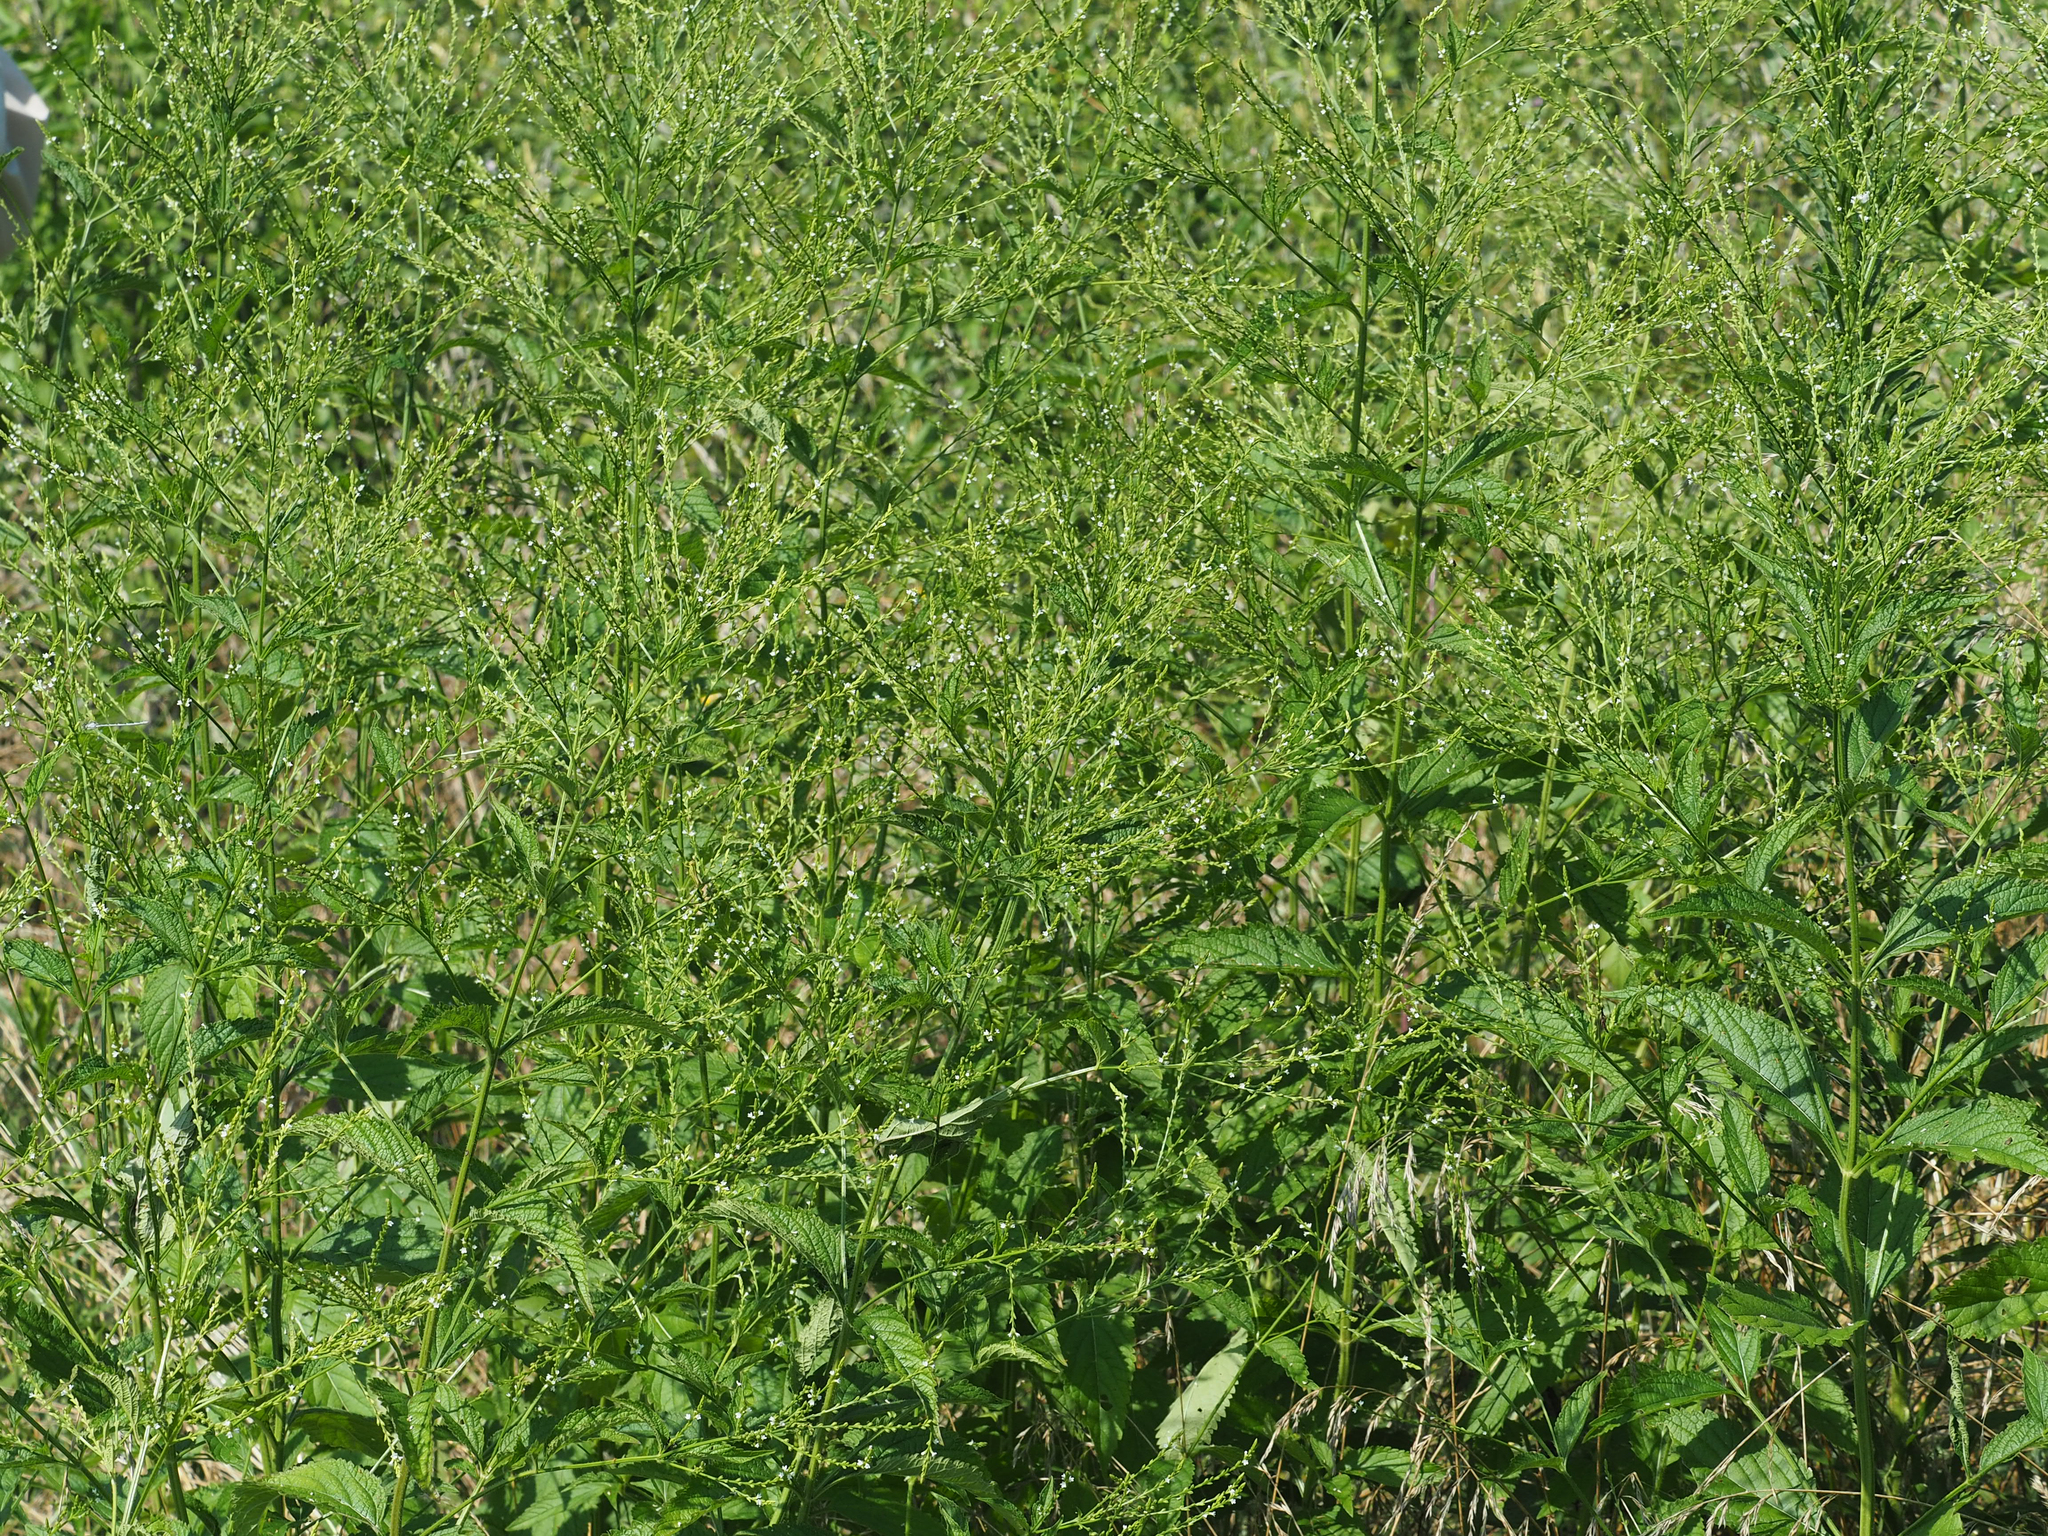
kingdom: Plantae
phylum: Tracheophyta
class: Magnoliopsida
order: Lamiales
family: Verbenaceae
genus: Verbena
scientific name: Verbena urticifolia
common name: Nettle-leaved vervain
